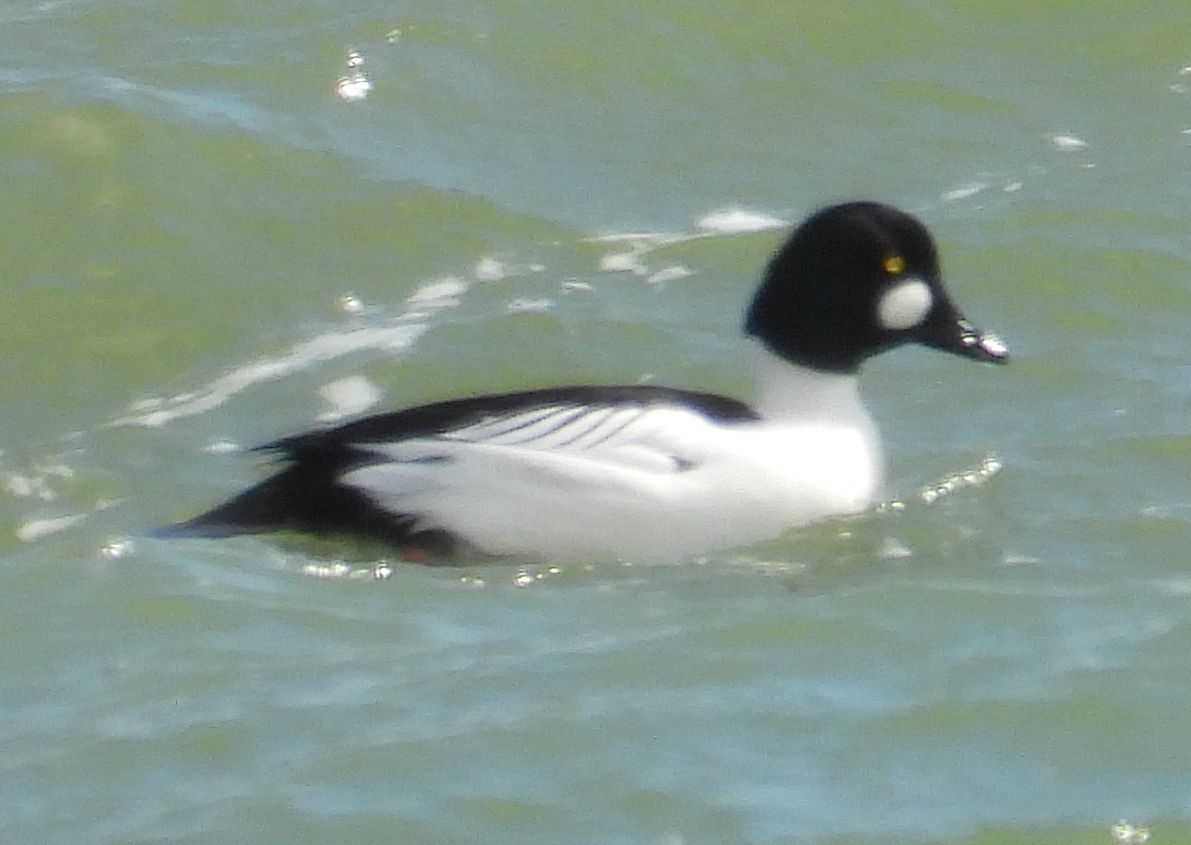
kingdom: Animalia
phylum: Chordata
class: Aves
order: Anseriformes
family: Anatidae
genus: Bucephala
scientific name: Bucephala clangula
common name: Common goldeneye
